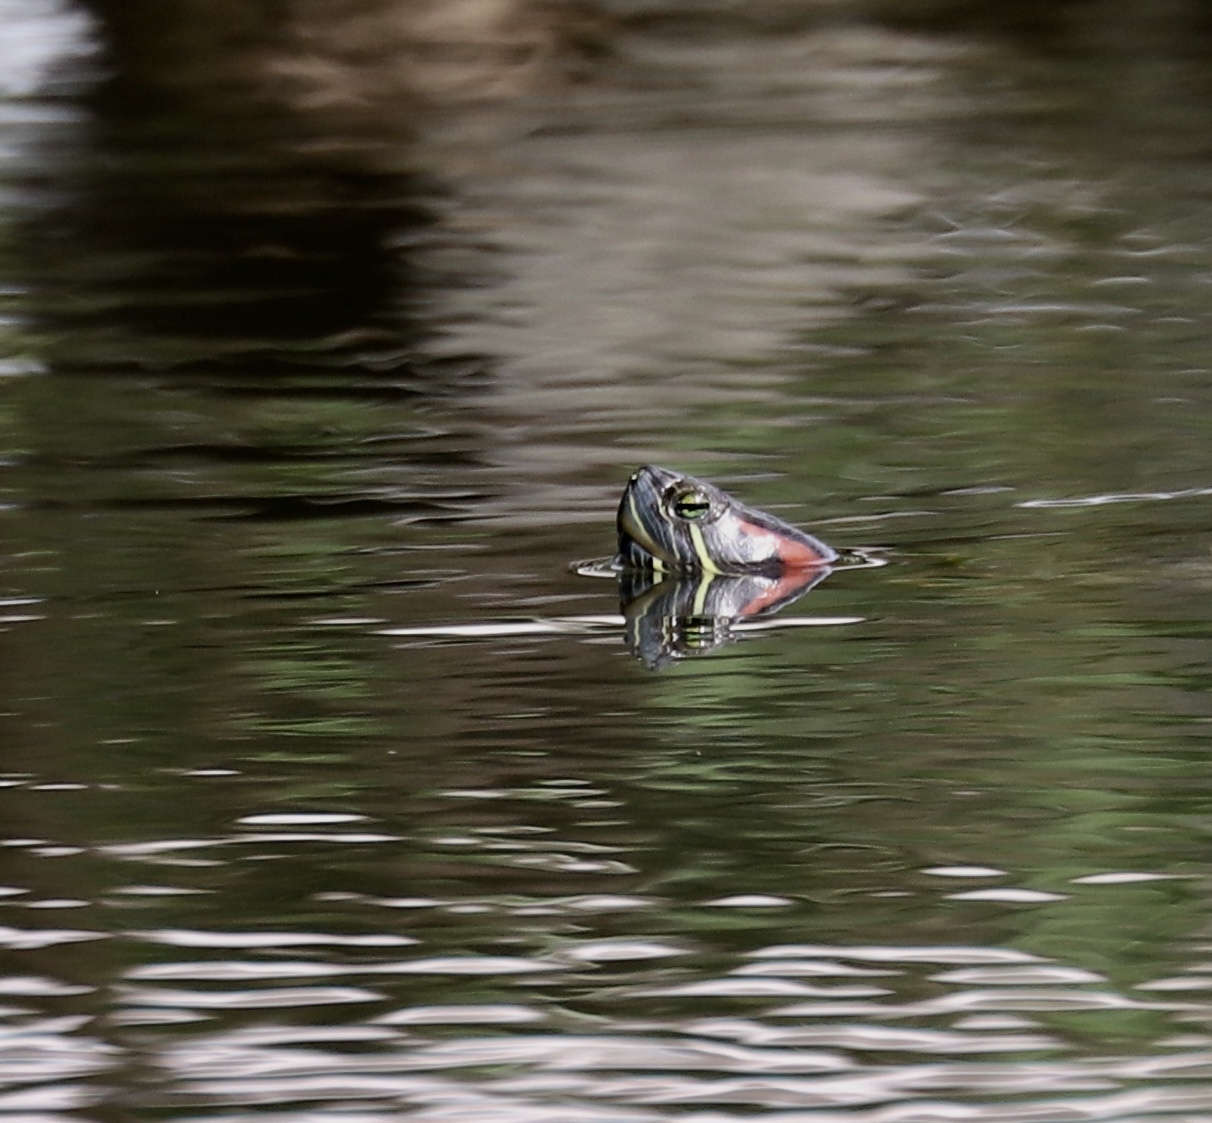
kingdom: Animalia
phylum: Chordata
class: Testudines
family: Emydidae
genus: Trachemys
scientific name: Trachemys venusta
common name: Mesoamerican slider
